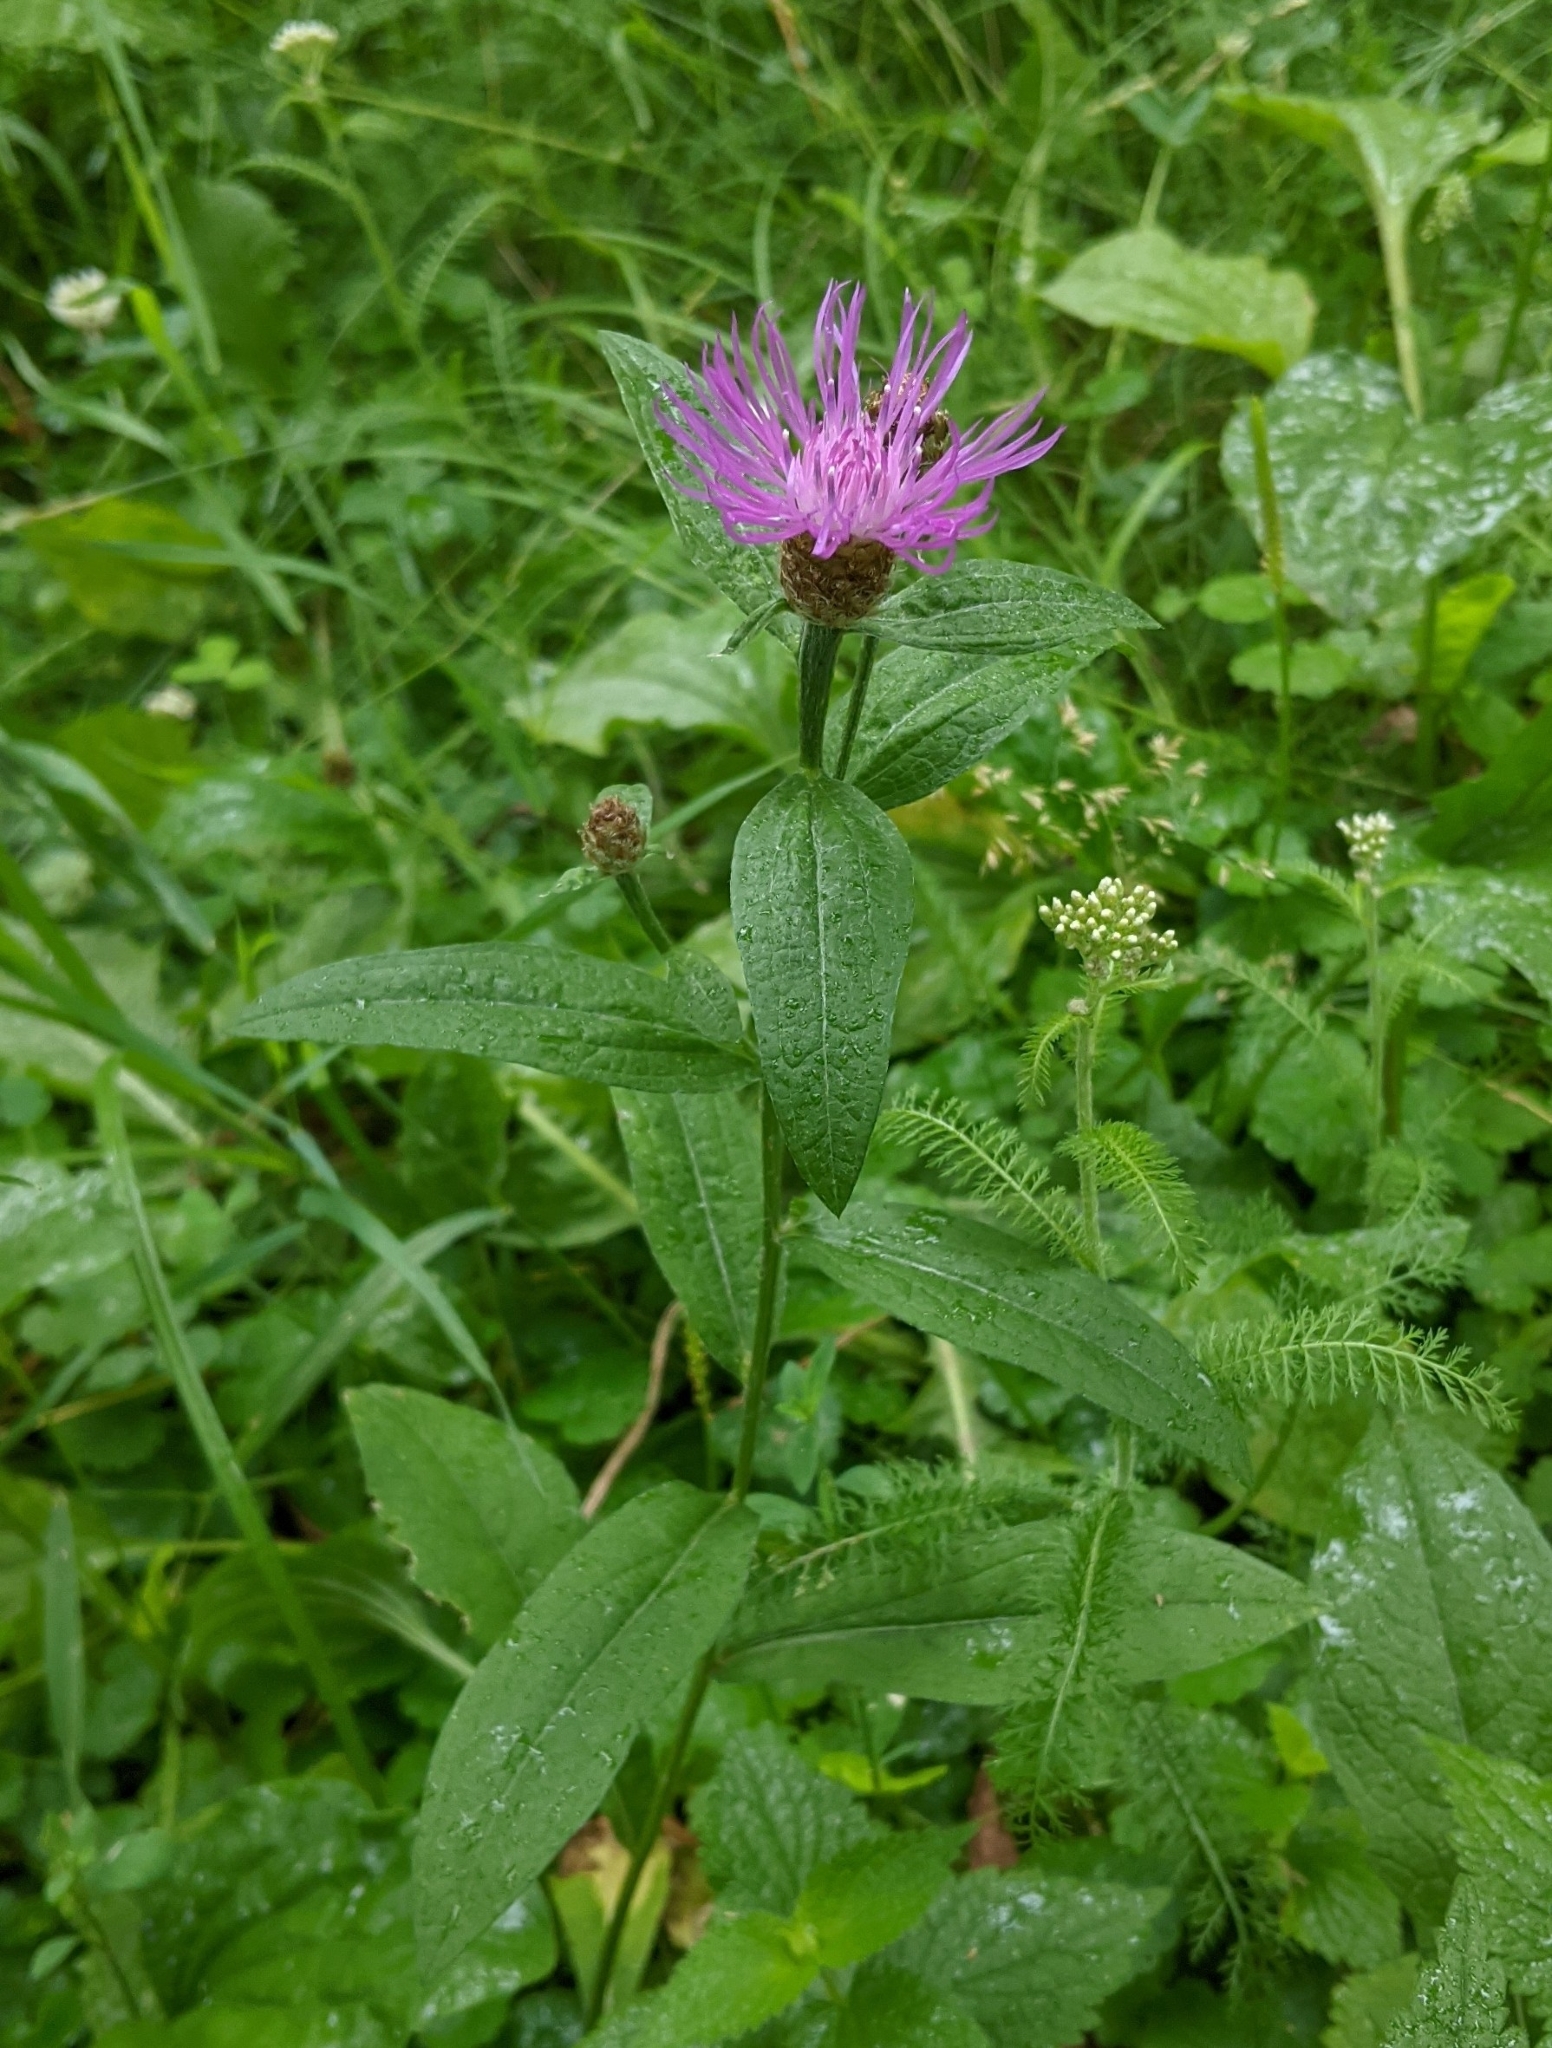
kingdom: Plantae
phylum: Tracheophyta
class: Magnoliopsida
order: Asterales
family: Asteraceae
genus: Centaurea
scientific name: Centaurea jacea
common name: Brown knapweed
